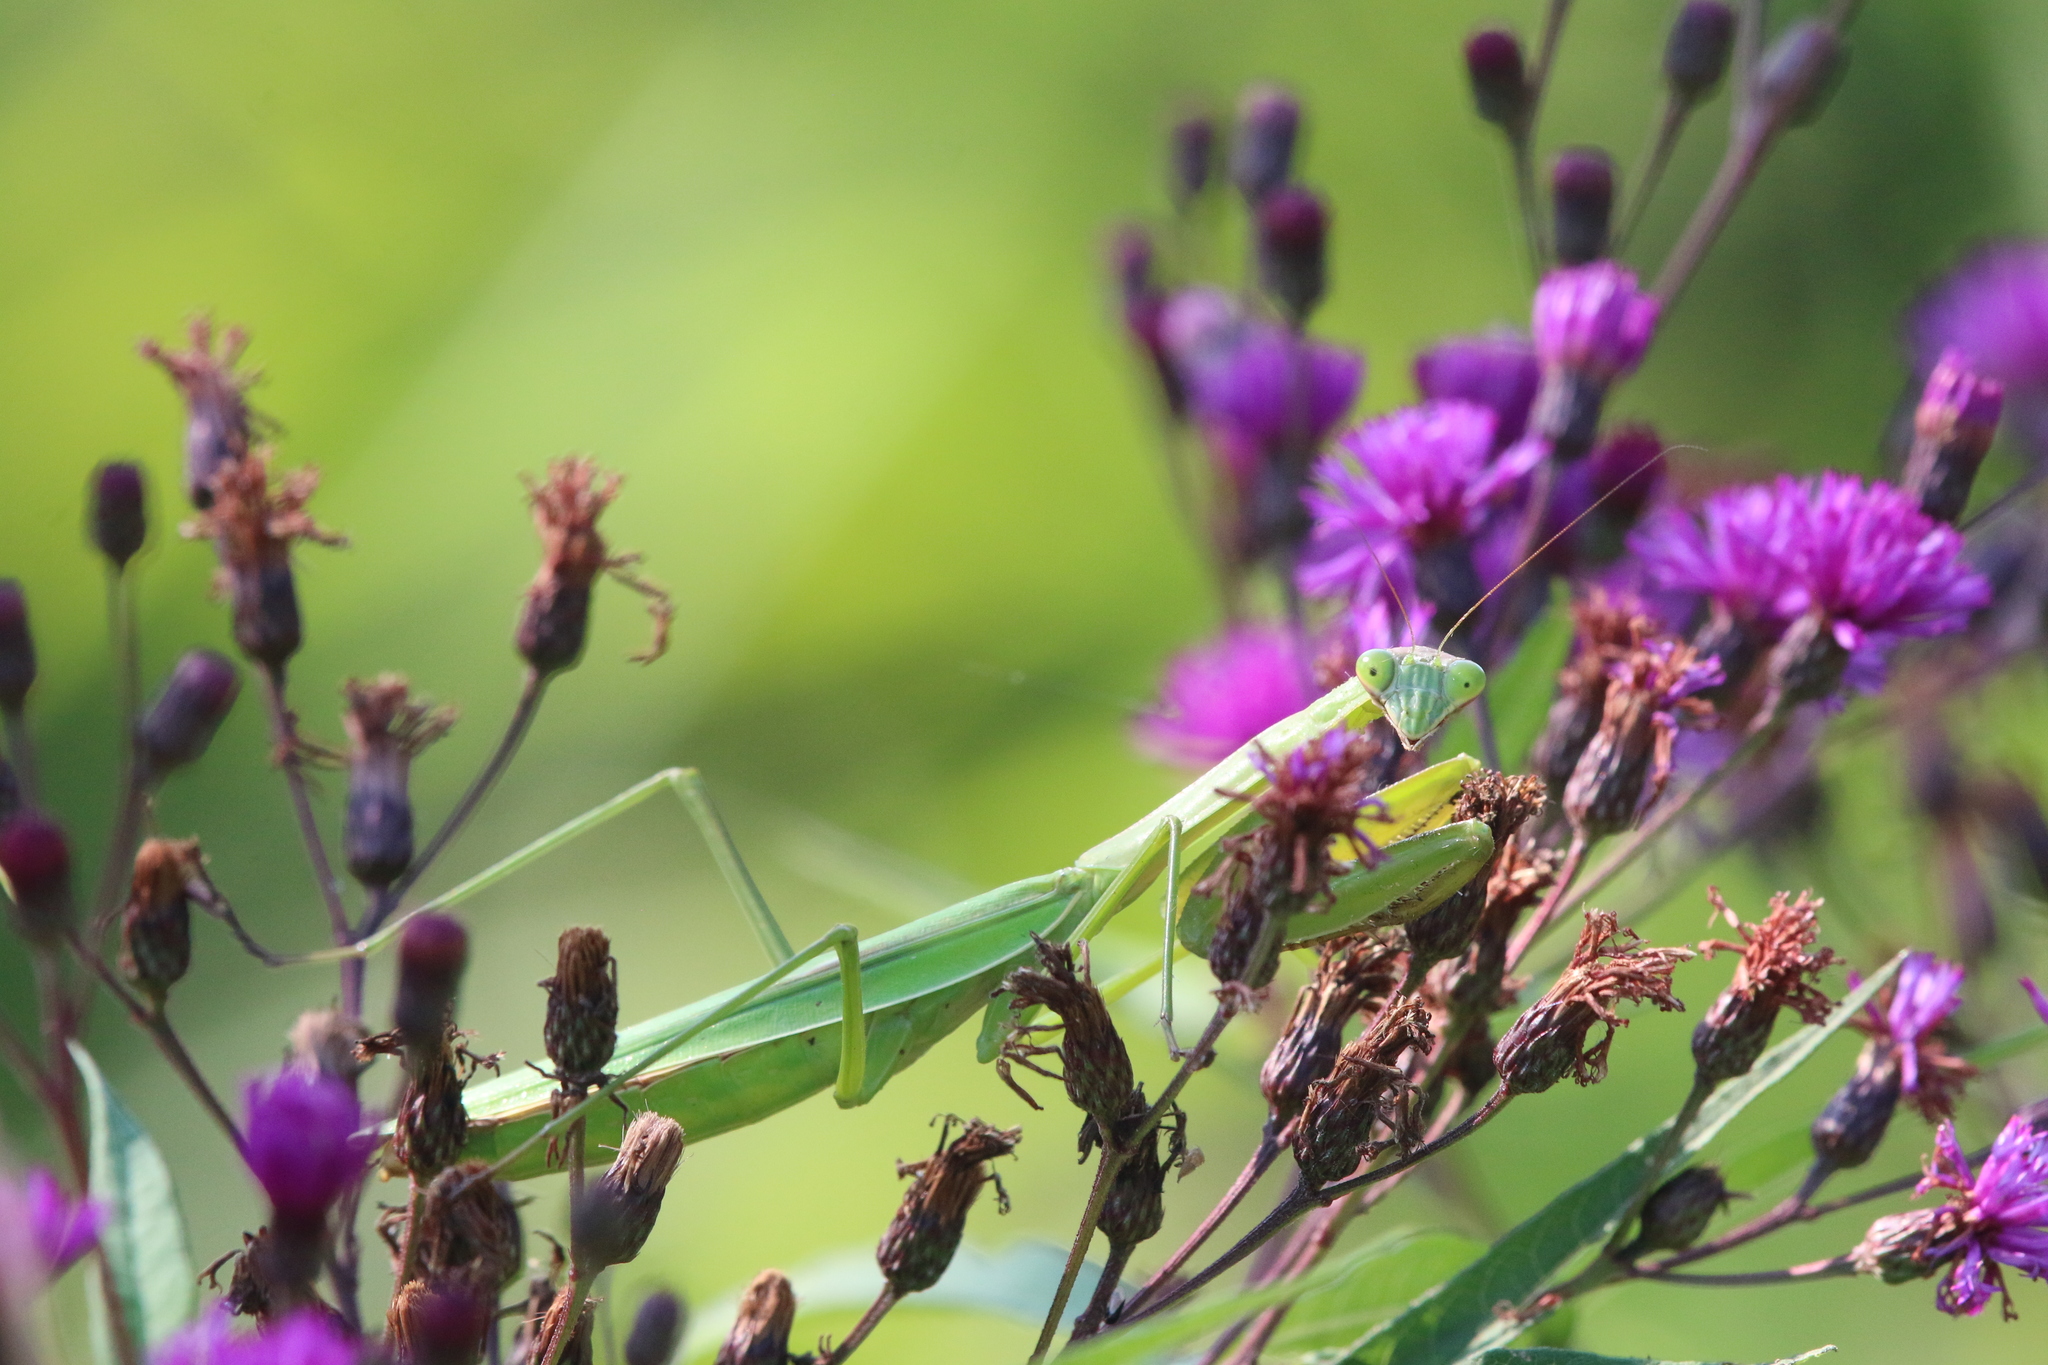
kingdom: Animalia
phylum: Arthropoda
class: Insecta
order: Mantodea
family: Mantidae
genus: Tenodera
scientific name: Tenodera sinensis
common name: Chinese mantis
